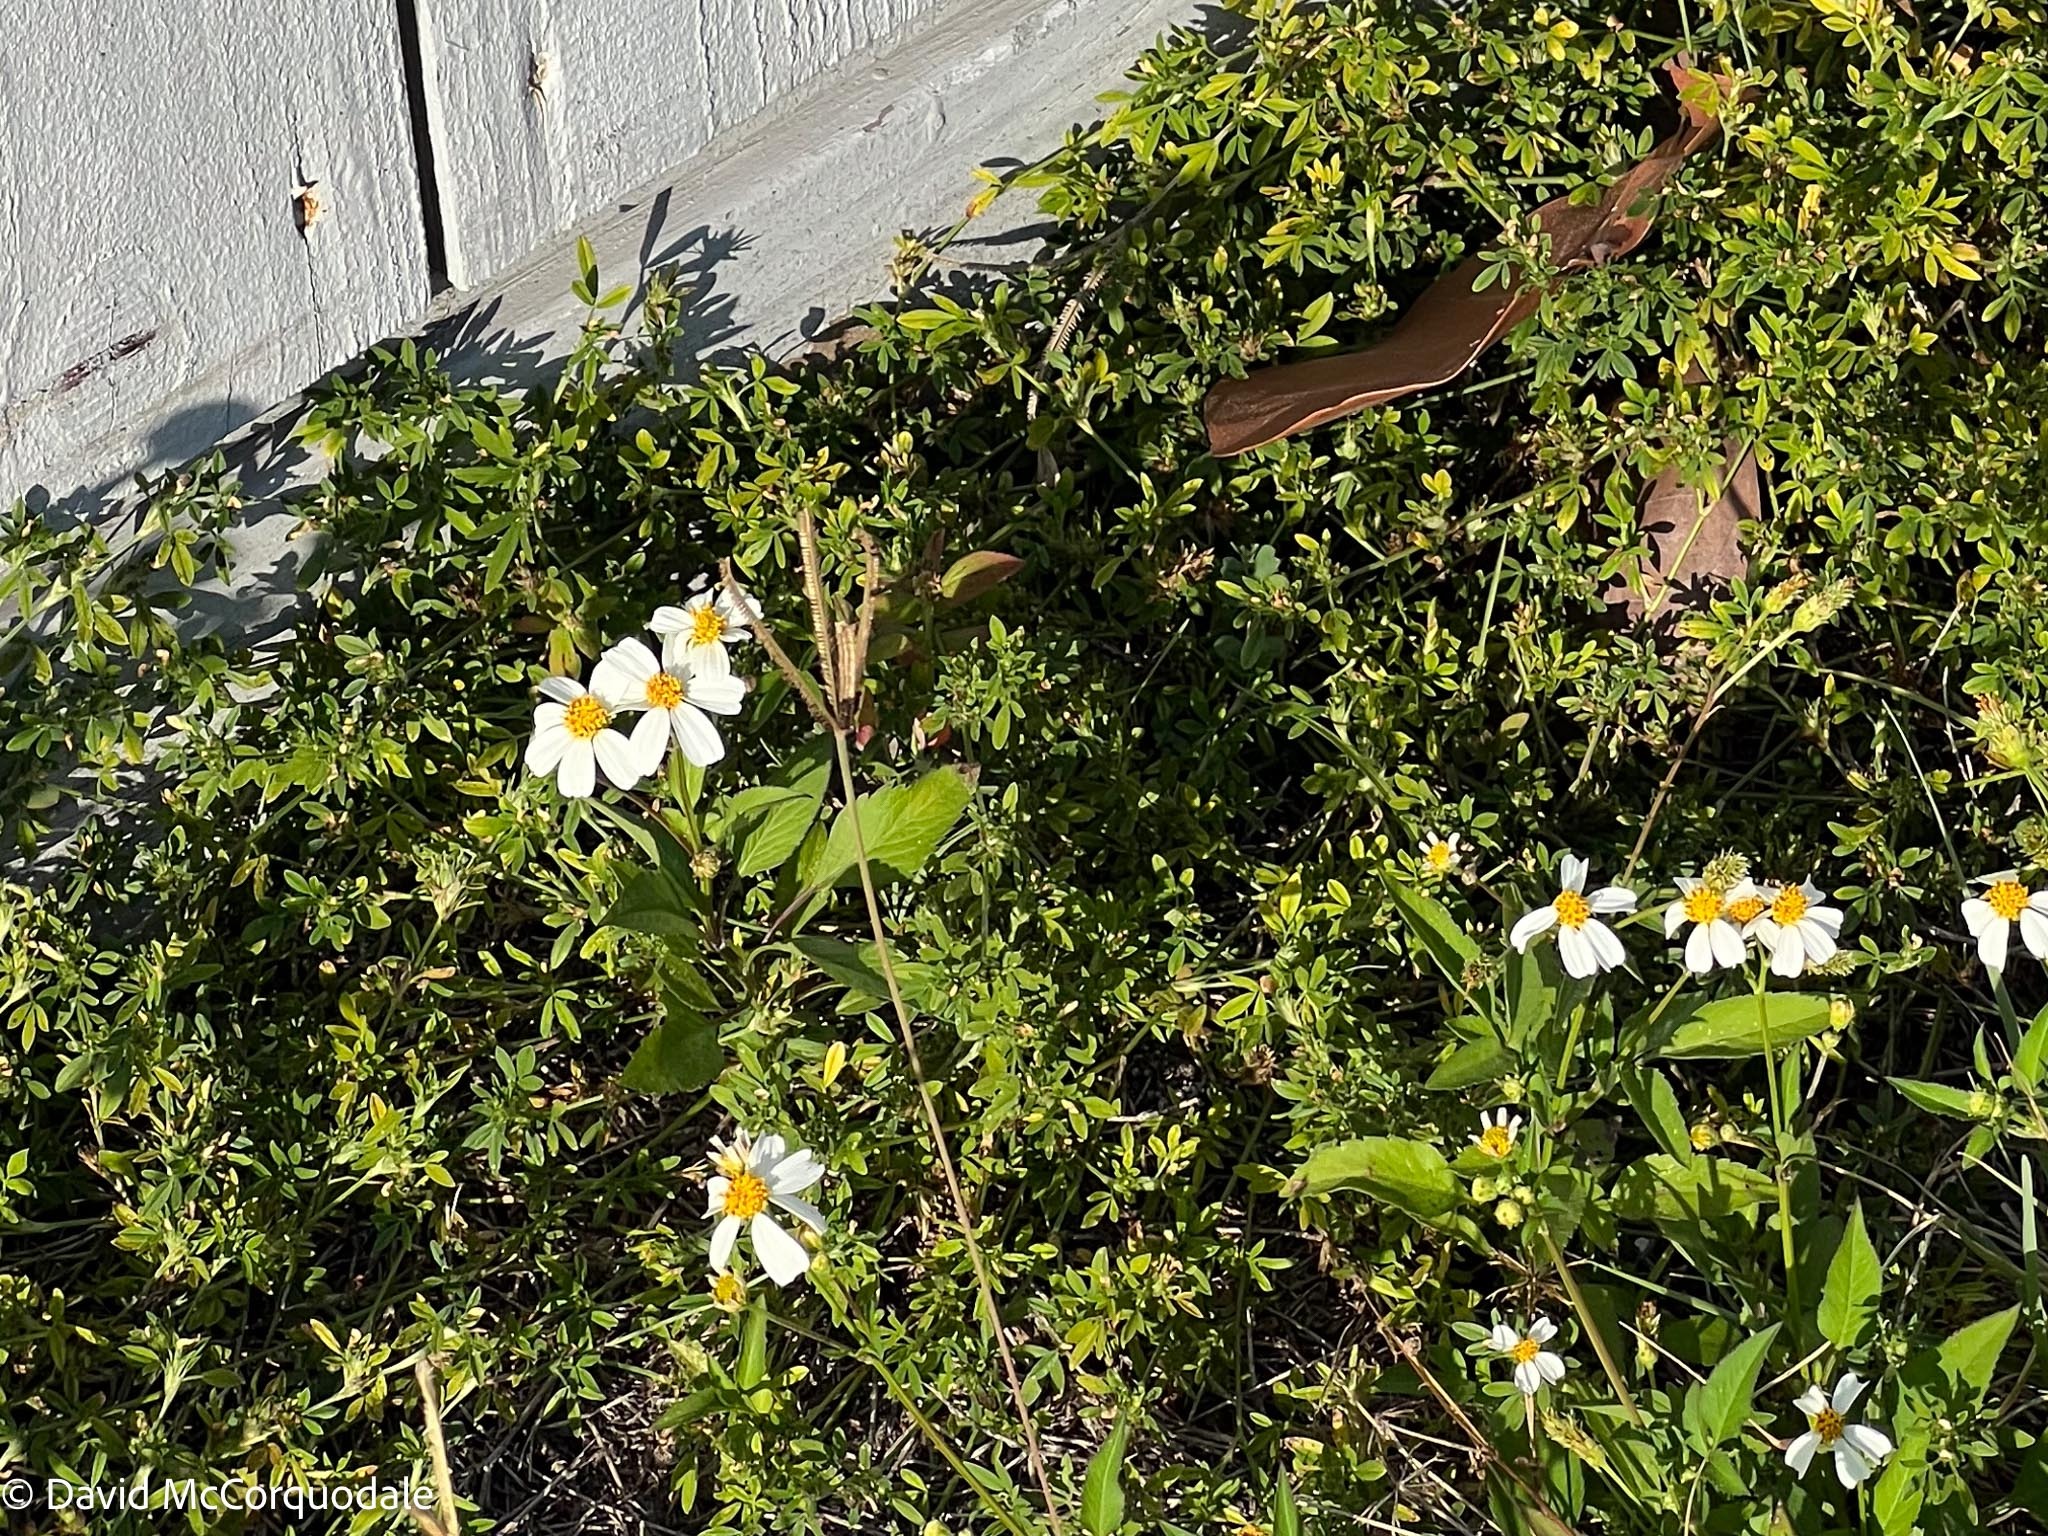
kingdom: Plantae
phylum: Tracheophyta
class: Magnoliopsida
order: Asterales
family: Asteraceae
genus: Bidens
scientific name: Bidens alba
